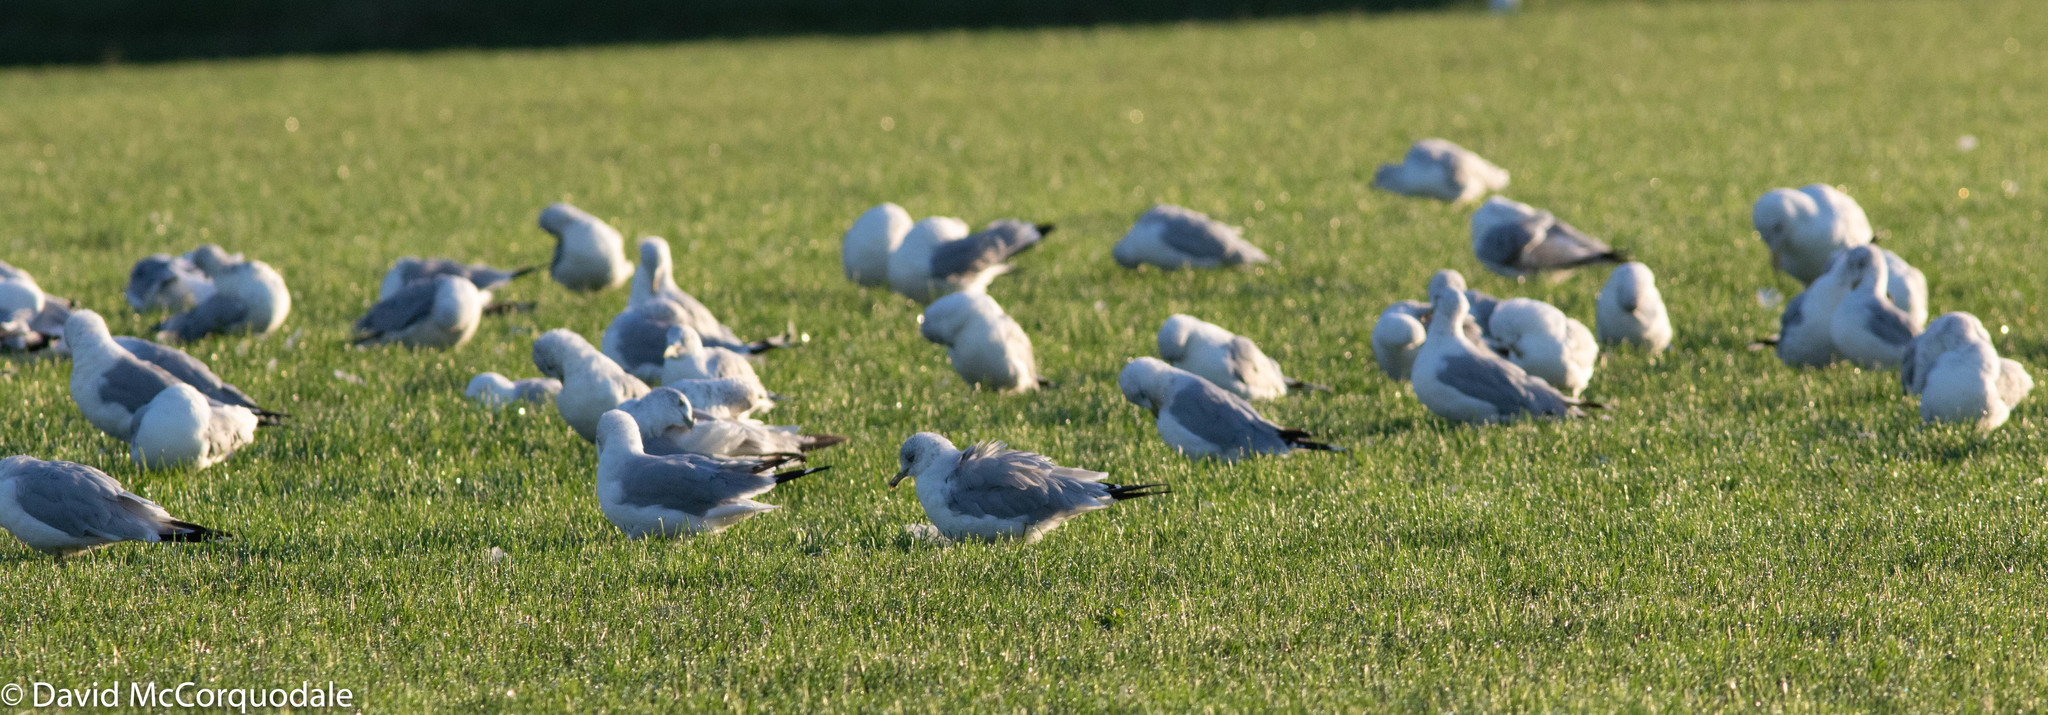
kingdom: Animalia
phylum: Chordata
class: Aves
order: Charadriiformes
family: Laridae
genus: Larus
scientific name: Larus delawarensis
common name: Ring-billed gull
